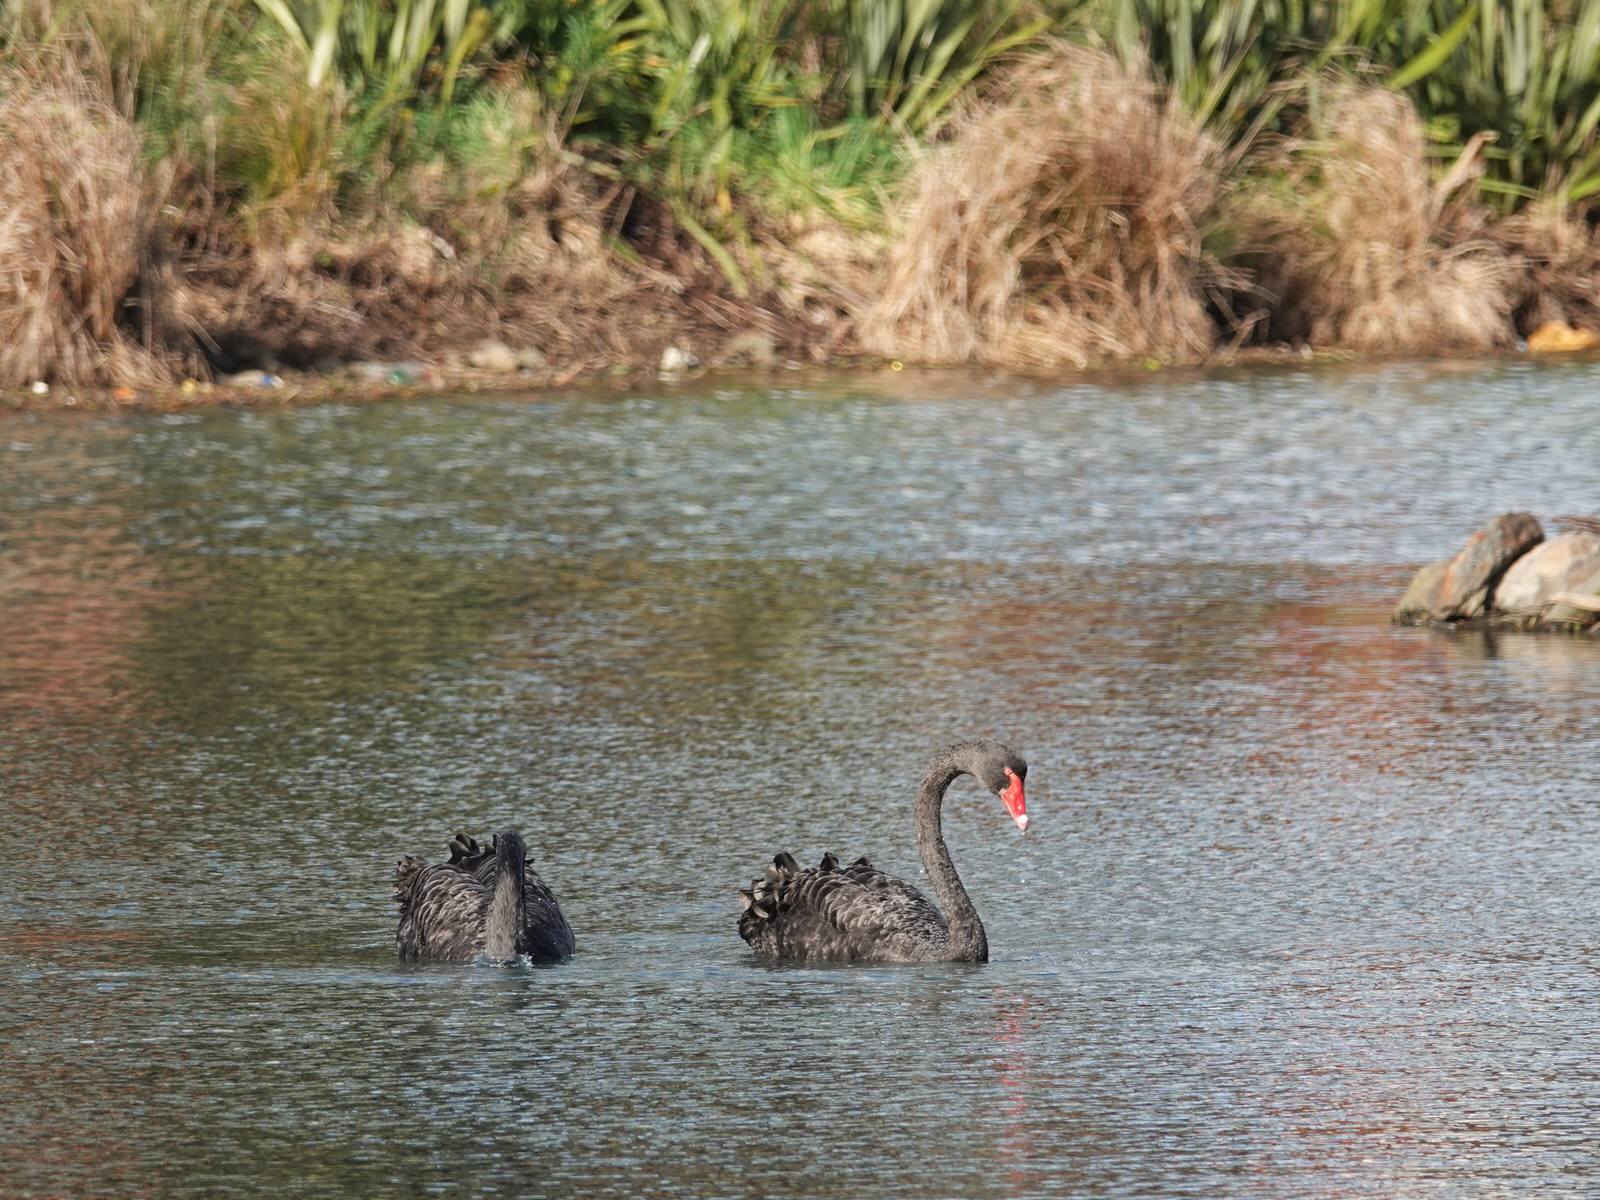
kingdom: Animalia
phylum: Chordata
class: Aves
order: Anseriformes
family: Anatidae
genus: Cygnus
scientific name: Cygnus atratus
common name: Black swan
